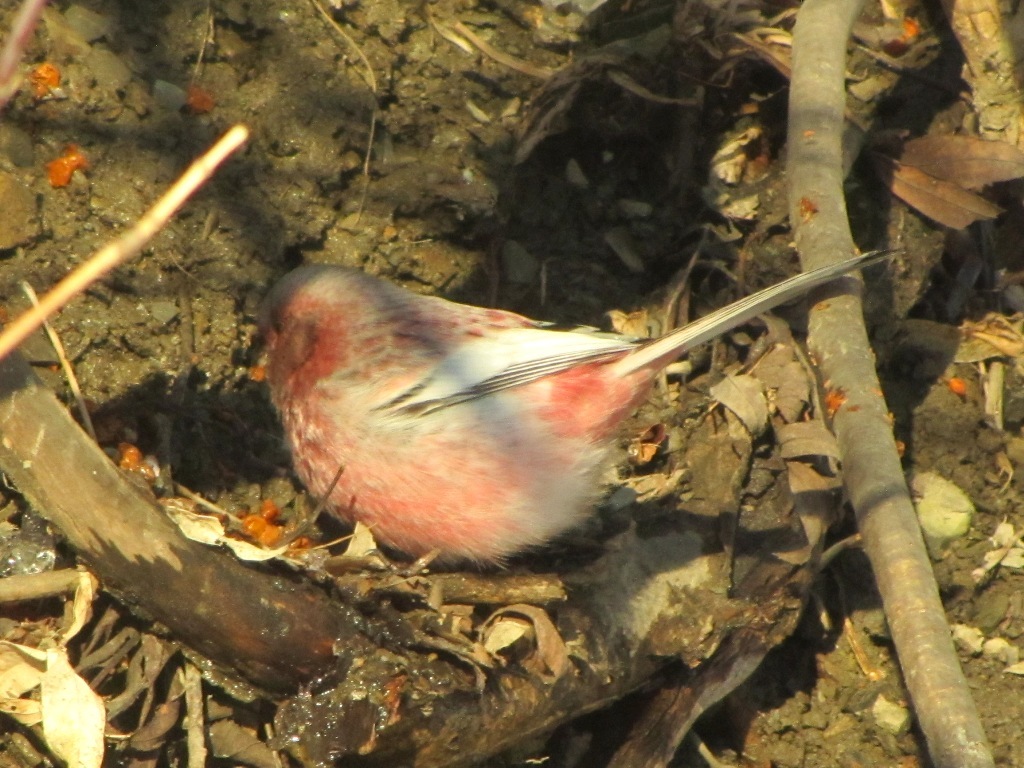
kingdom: Animalia
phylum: Chordata
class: Aves
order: Passeriformes
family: Fringillidae
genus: Carpodacus
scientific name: Carpodacus sibiricus
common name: Long-tailed rosefinch
